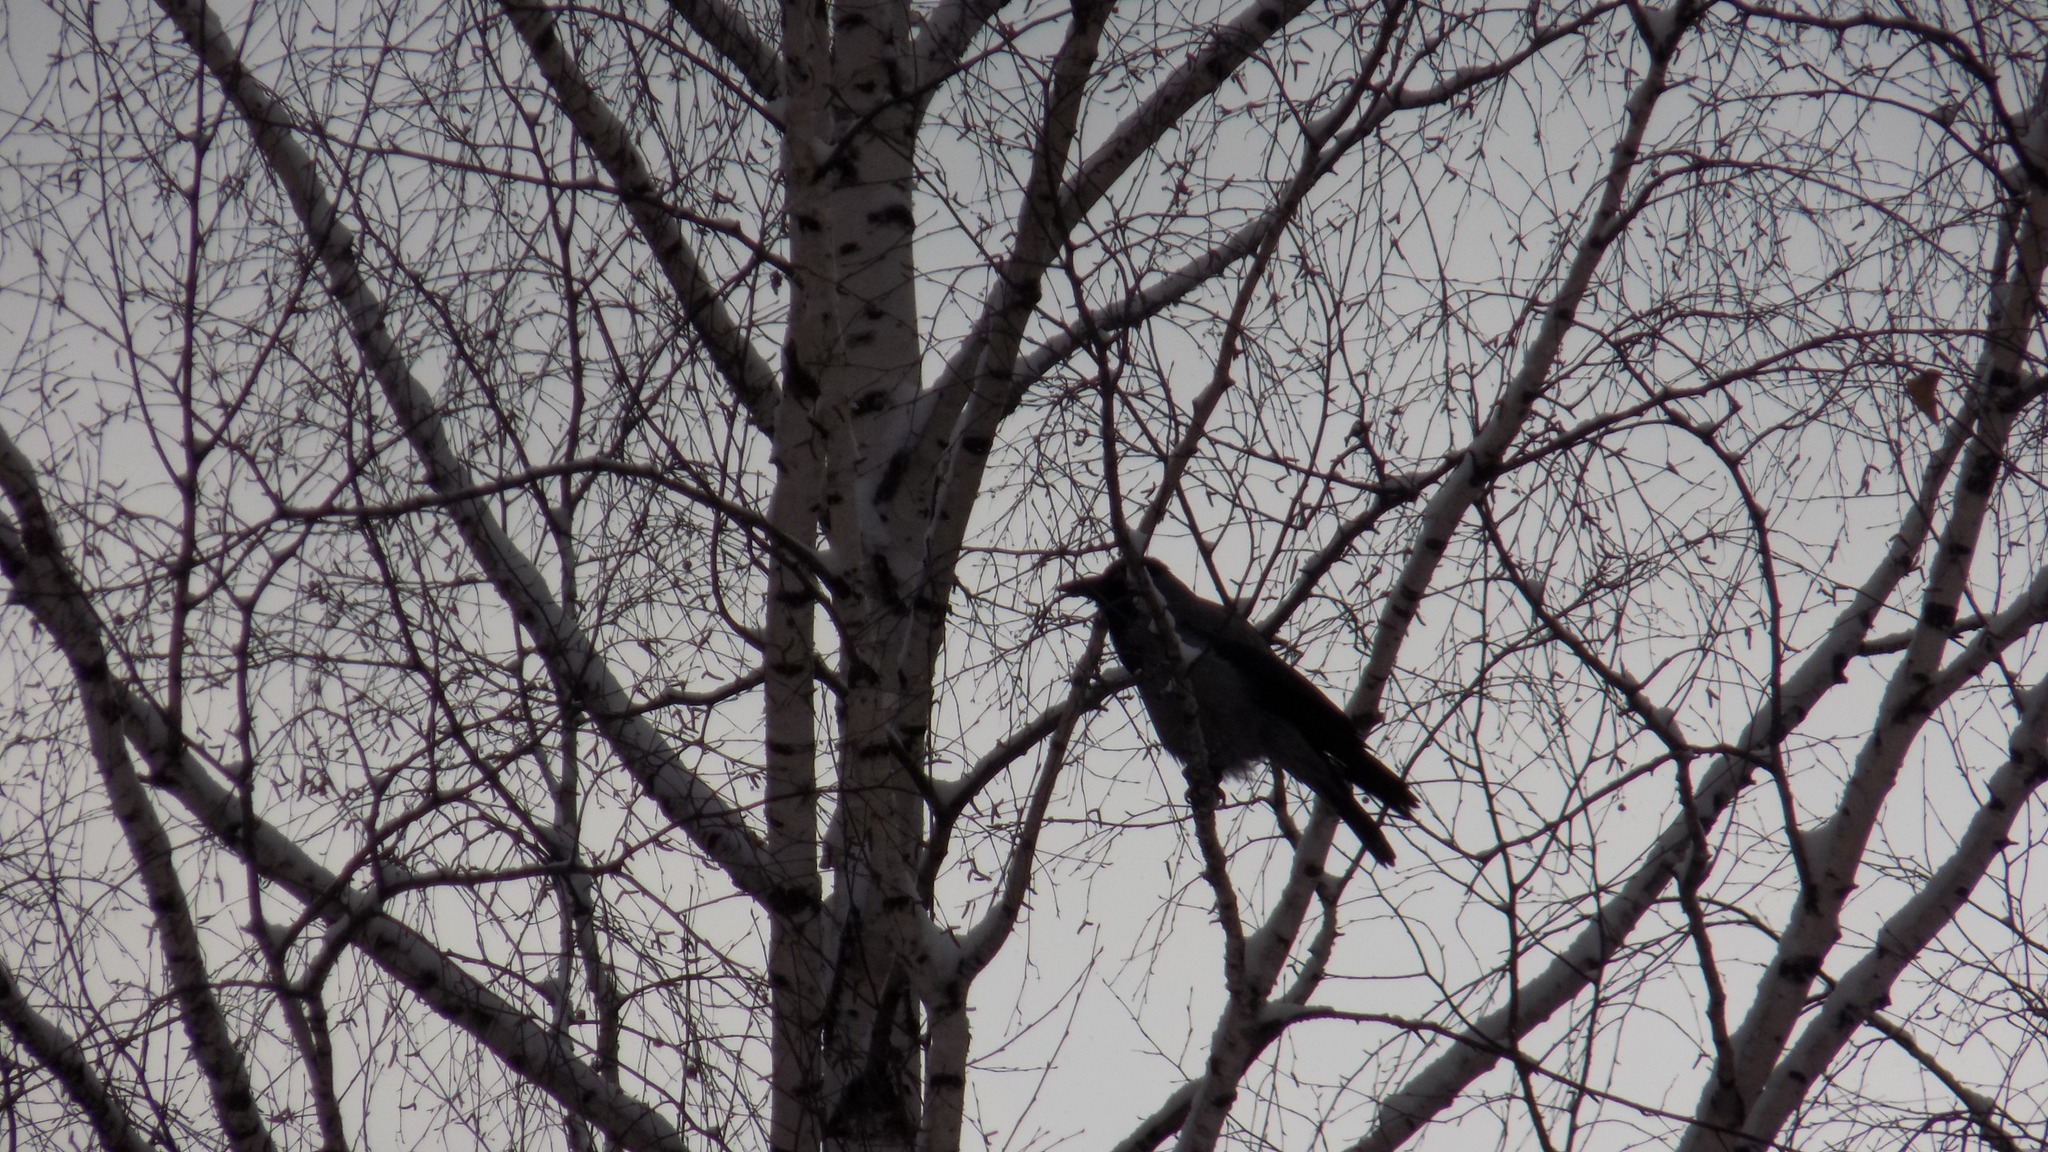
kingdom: Animalia
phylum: Chordata
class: Aves
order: Passeriformes
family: Corvidae
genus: Corvus
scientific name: Corvus cornix
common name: Hooded crow
